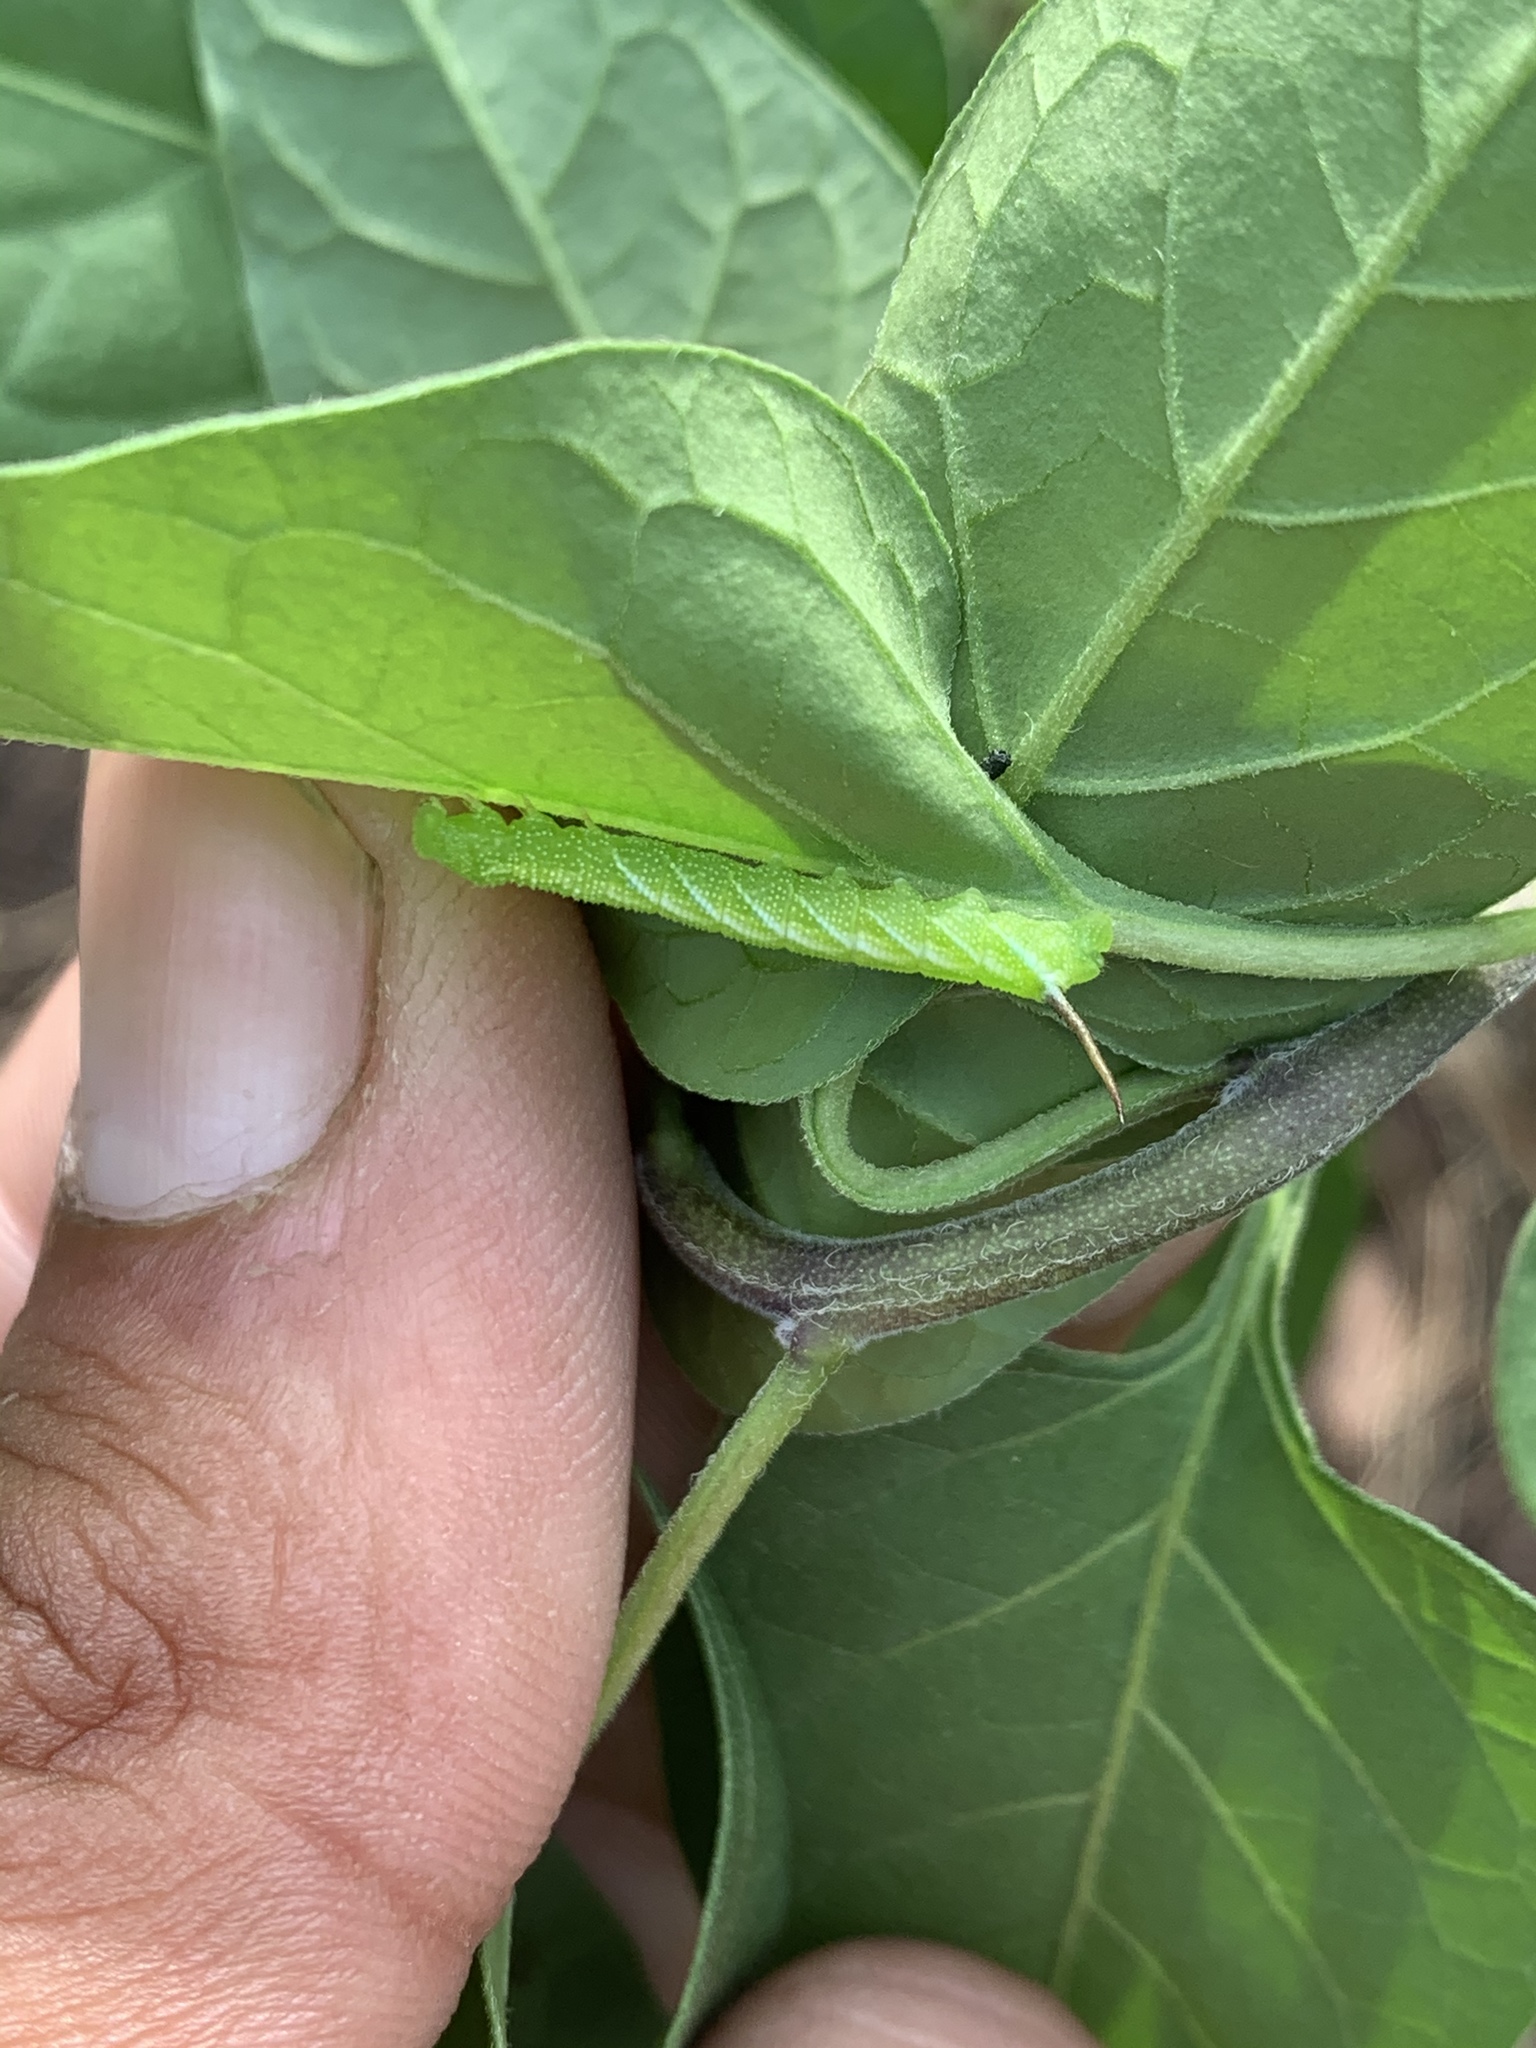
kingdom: Animalia
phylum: Arthropoda
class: Insecta
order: Lepidoptera
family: Sphingidae
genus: Manduca
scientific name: Manduca sexta
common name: Carolina sphinx
